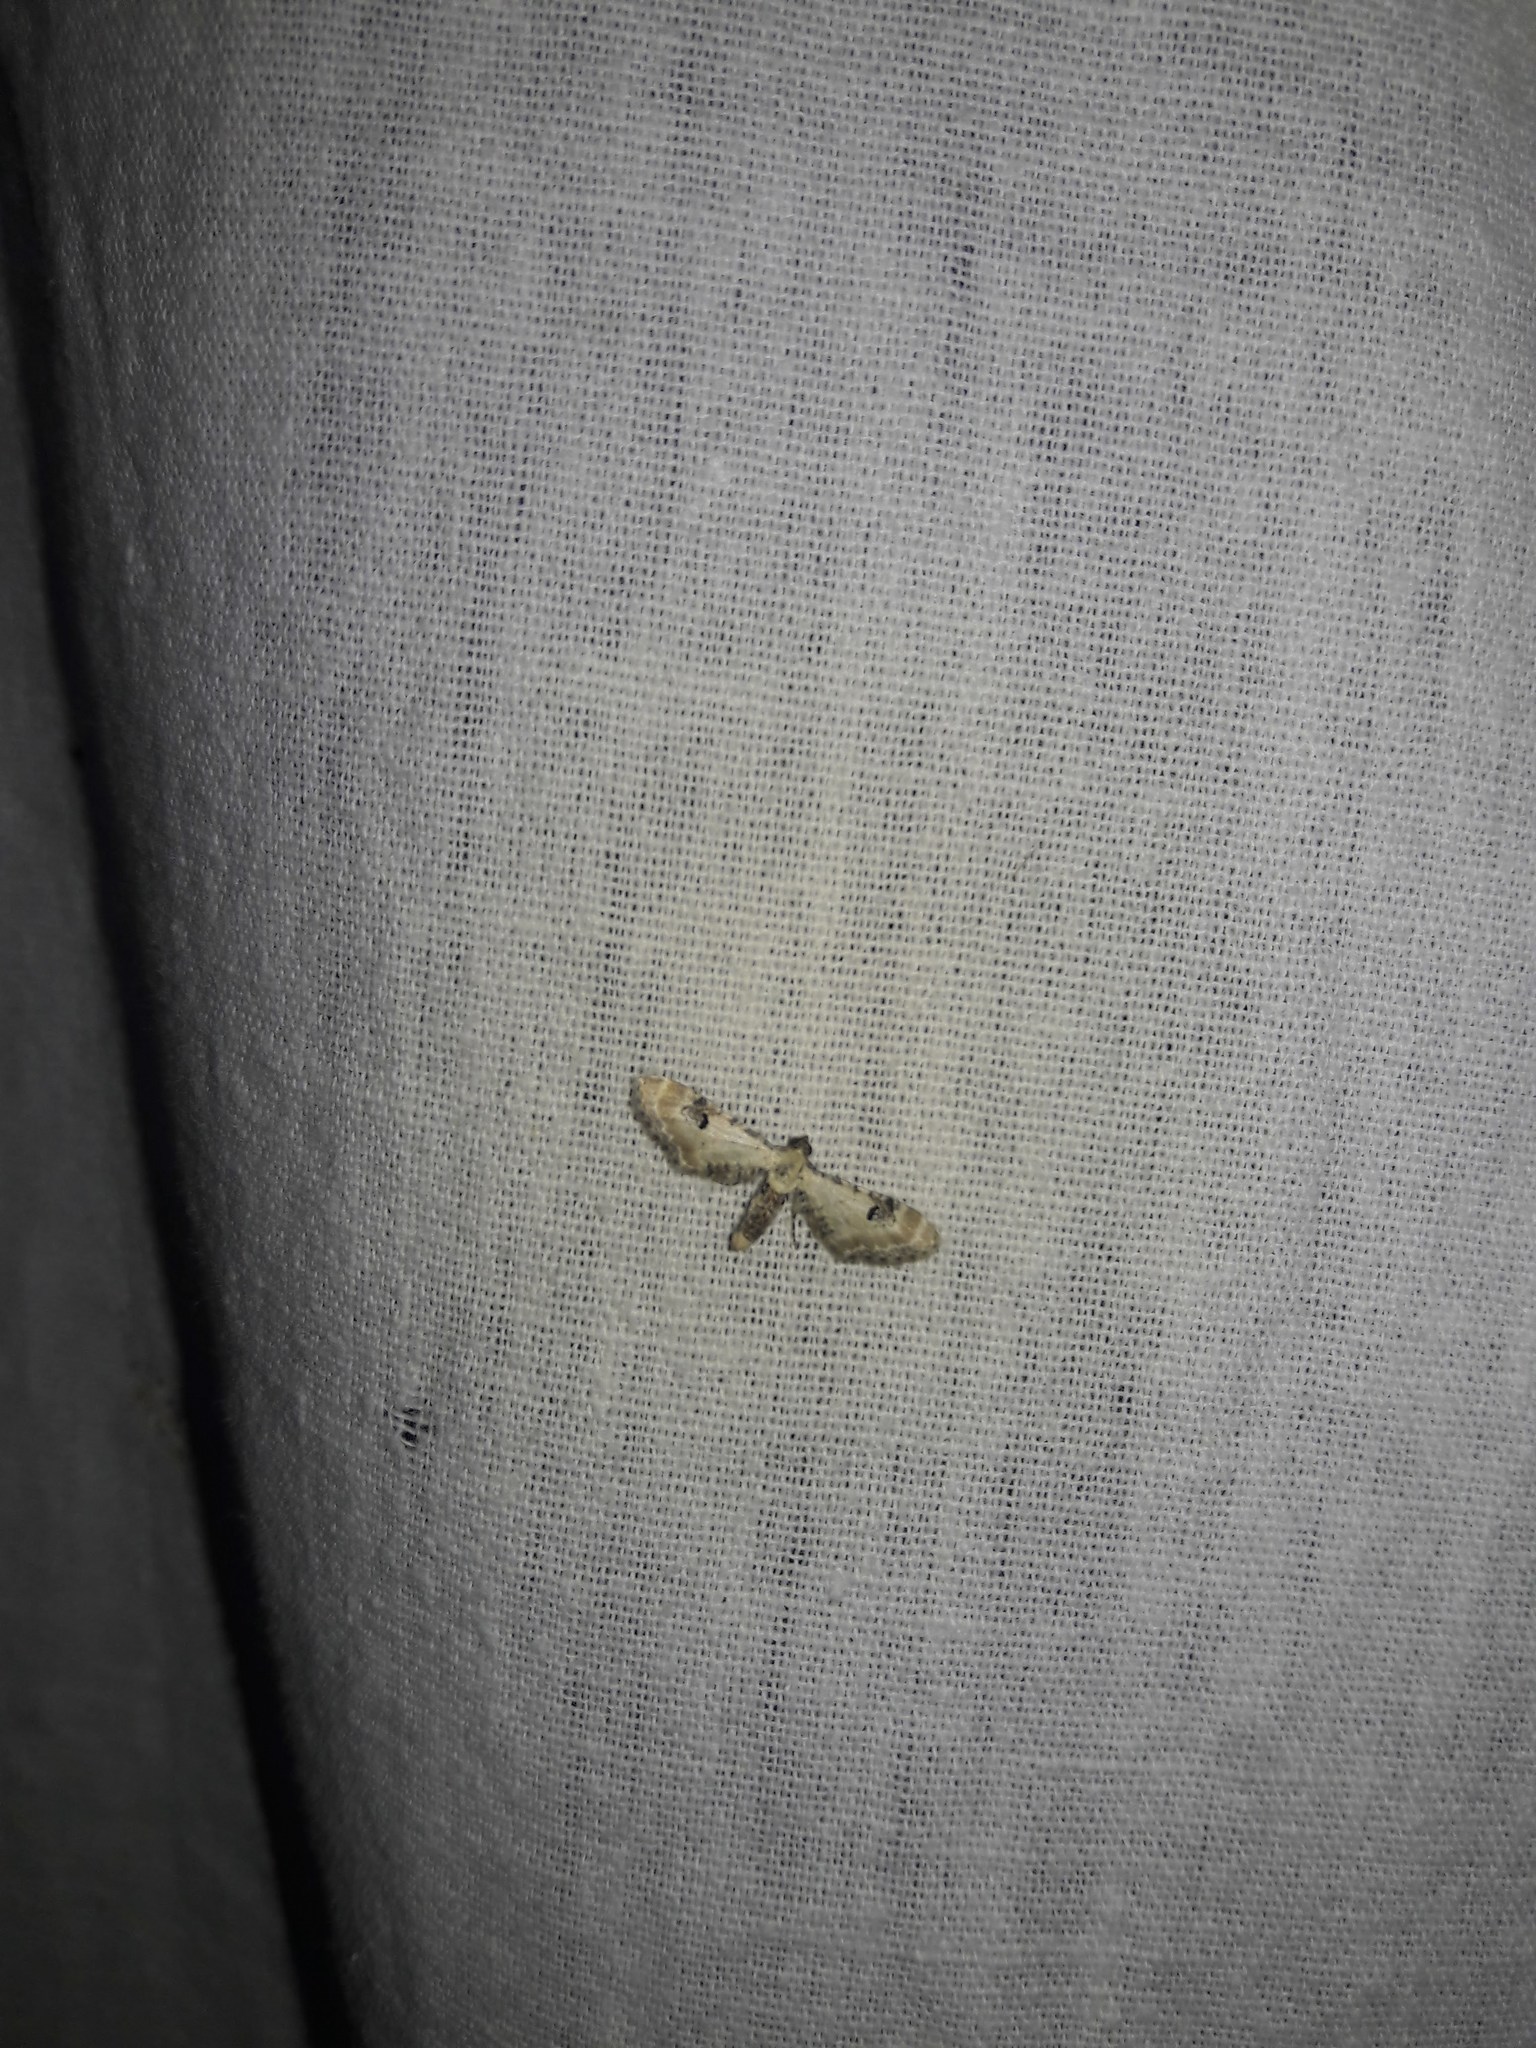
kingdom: Animalia
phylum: Arthropoda
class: Insecta
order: Lepidoptera
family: Geometridae
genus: Eupithecia
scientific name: Eupithecia centaureata
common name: Lime-speck pug
